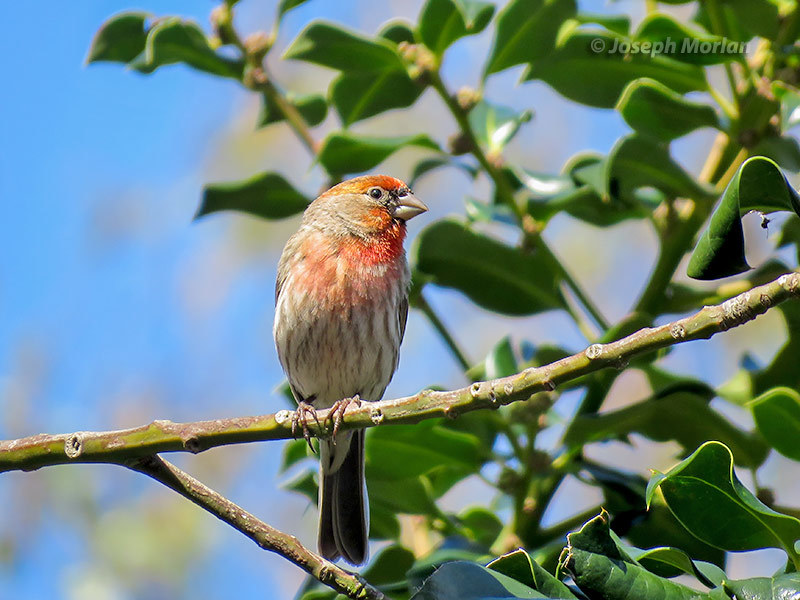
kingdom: Animalia
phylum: Chordata
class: Aves
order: Passeriformes
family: Fringillidae
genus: Haemorhous
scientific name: Haemorhous mexicanus
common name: House finch
